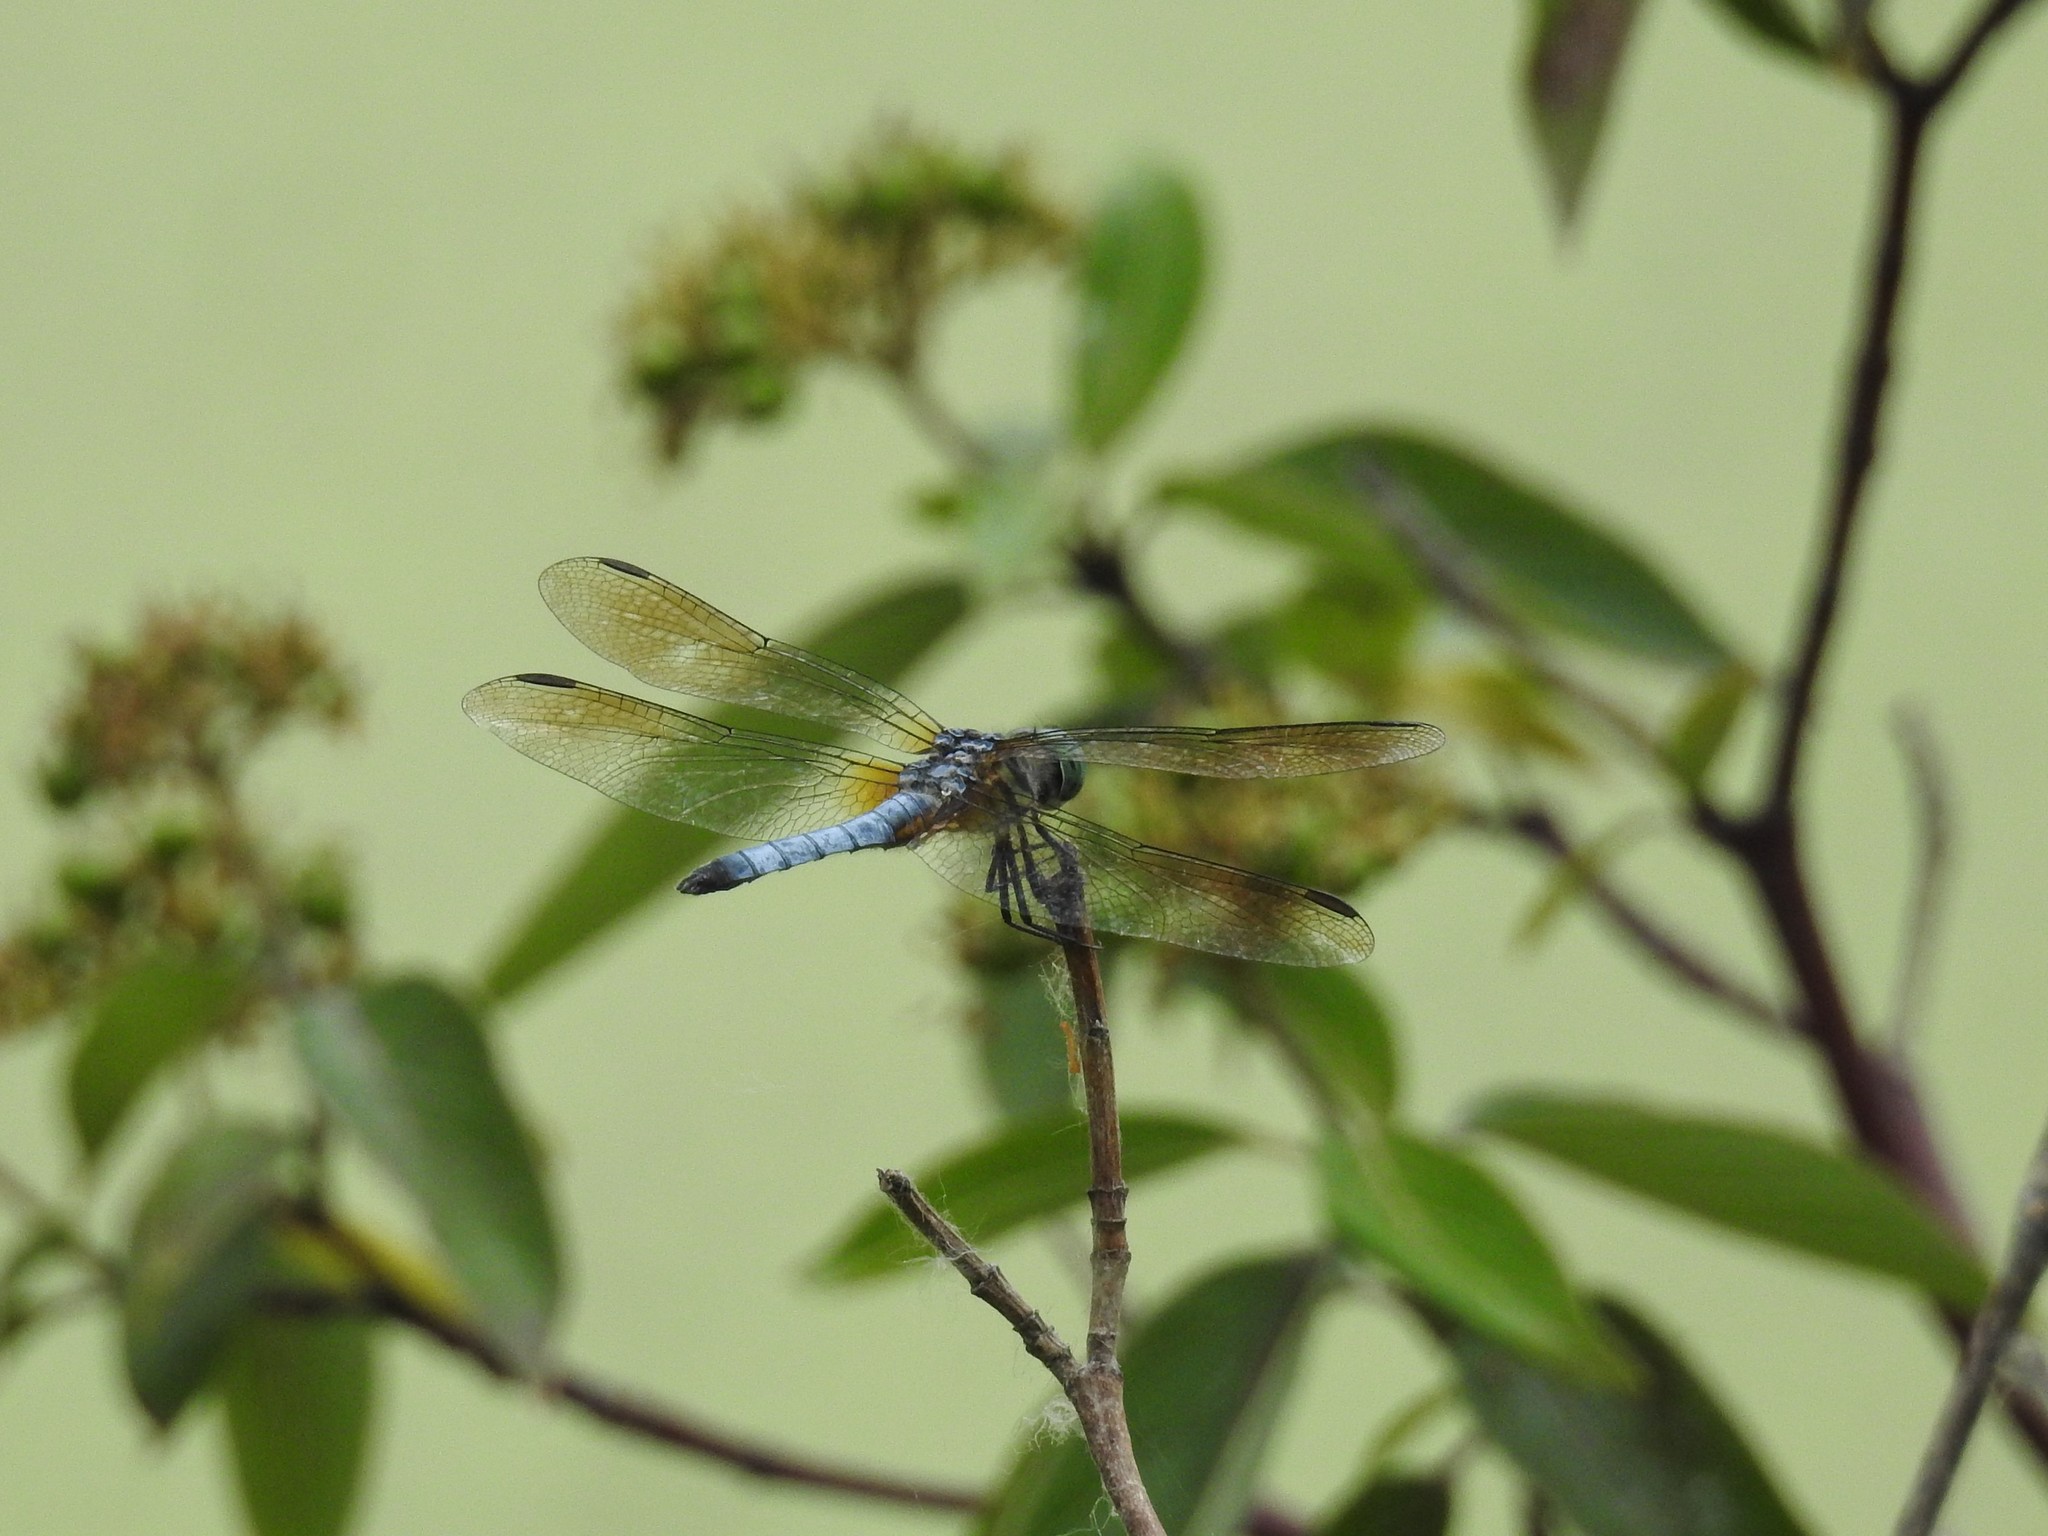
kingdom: Animalia
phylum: Arthropoda
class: Insecta
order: Odonata
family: Libellulidae
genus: Pachydiplax
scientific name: Pachydiplax longipennis
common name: Blue dasher
